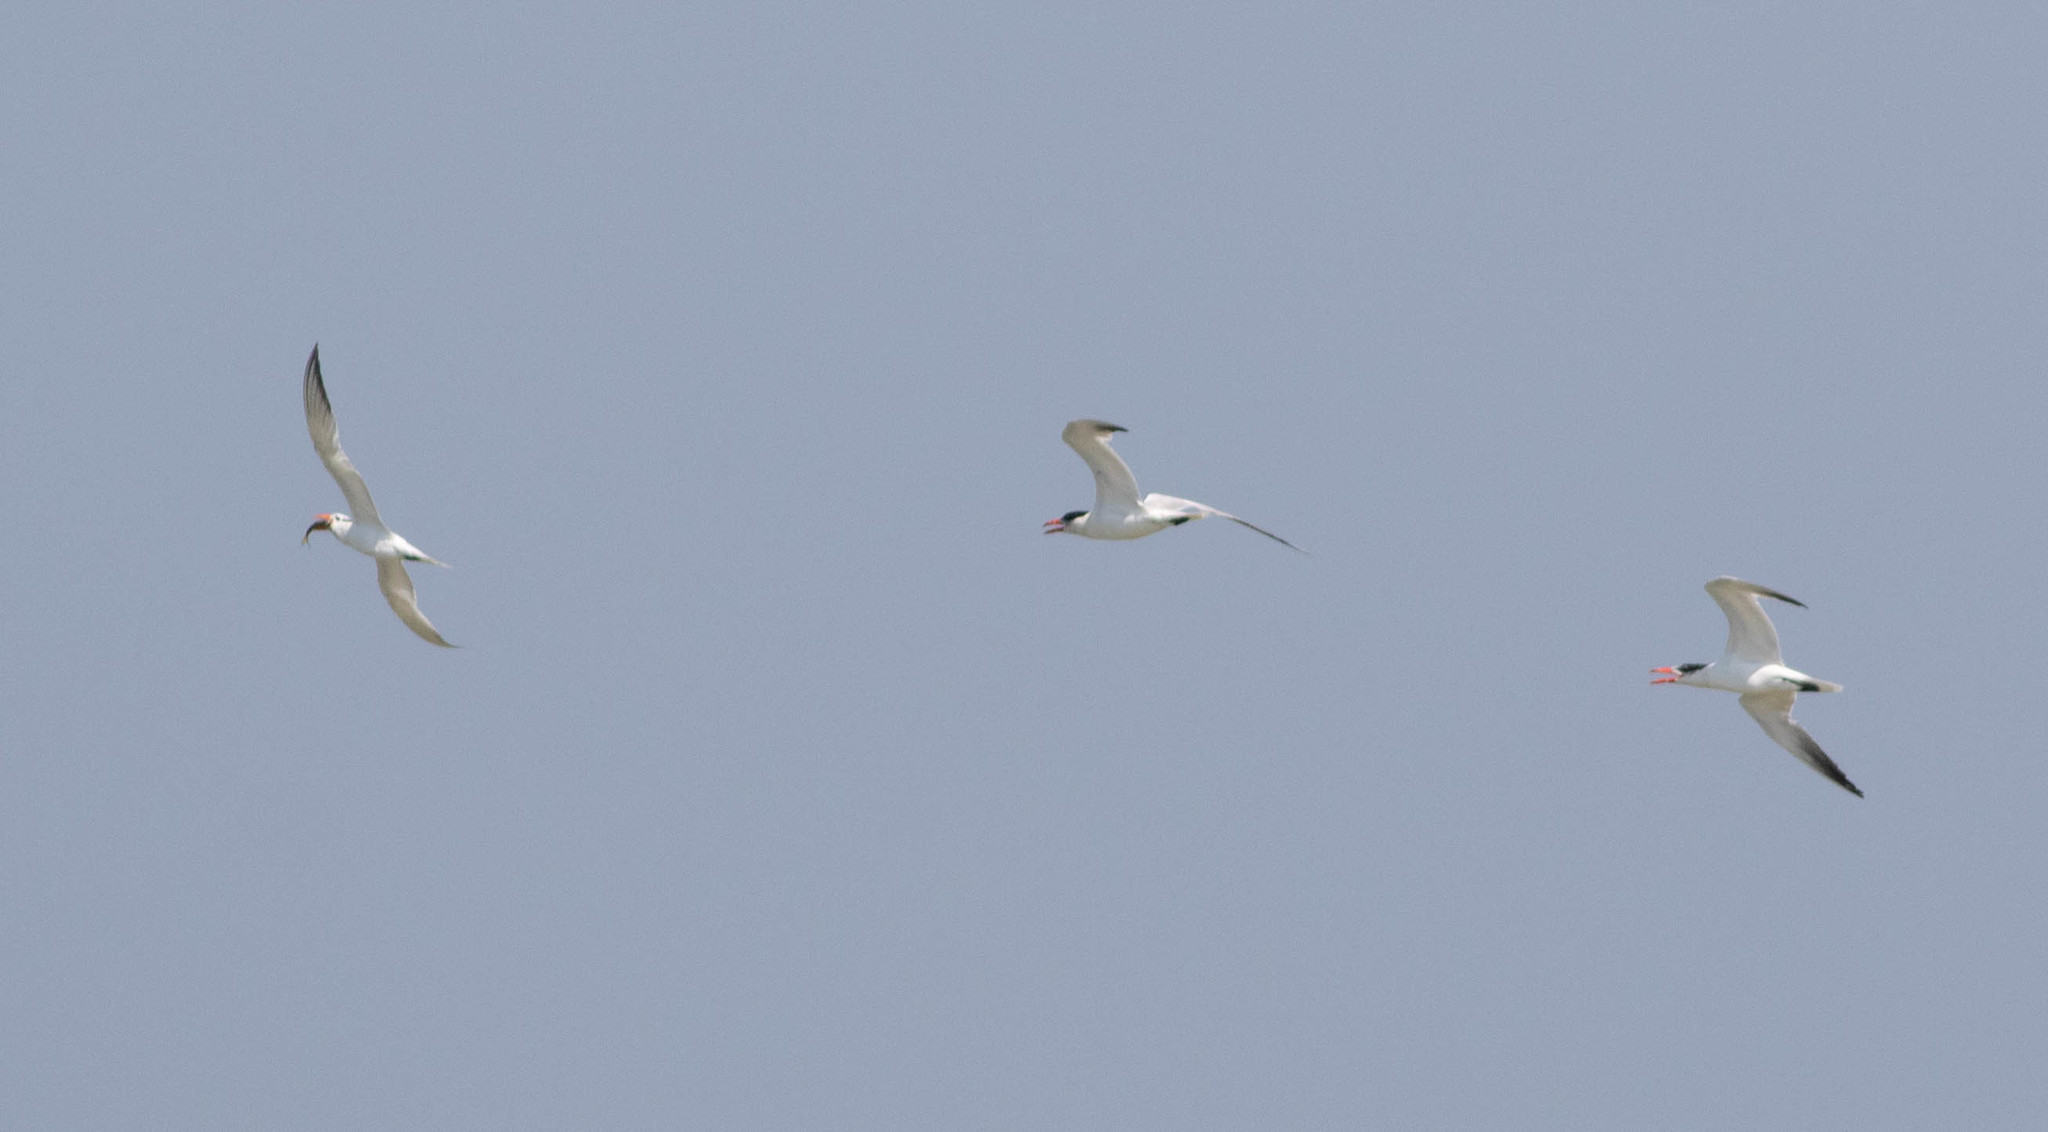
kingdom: Animalia
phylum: Chordata
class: Aves
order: Charadriiformes
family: Laridae
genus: Hydroprogne
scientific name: Hydroprogne caspia
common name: Caspian tern
